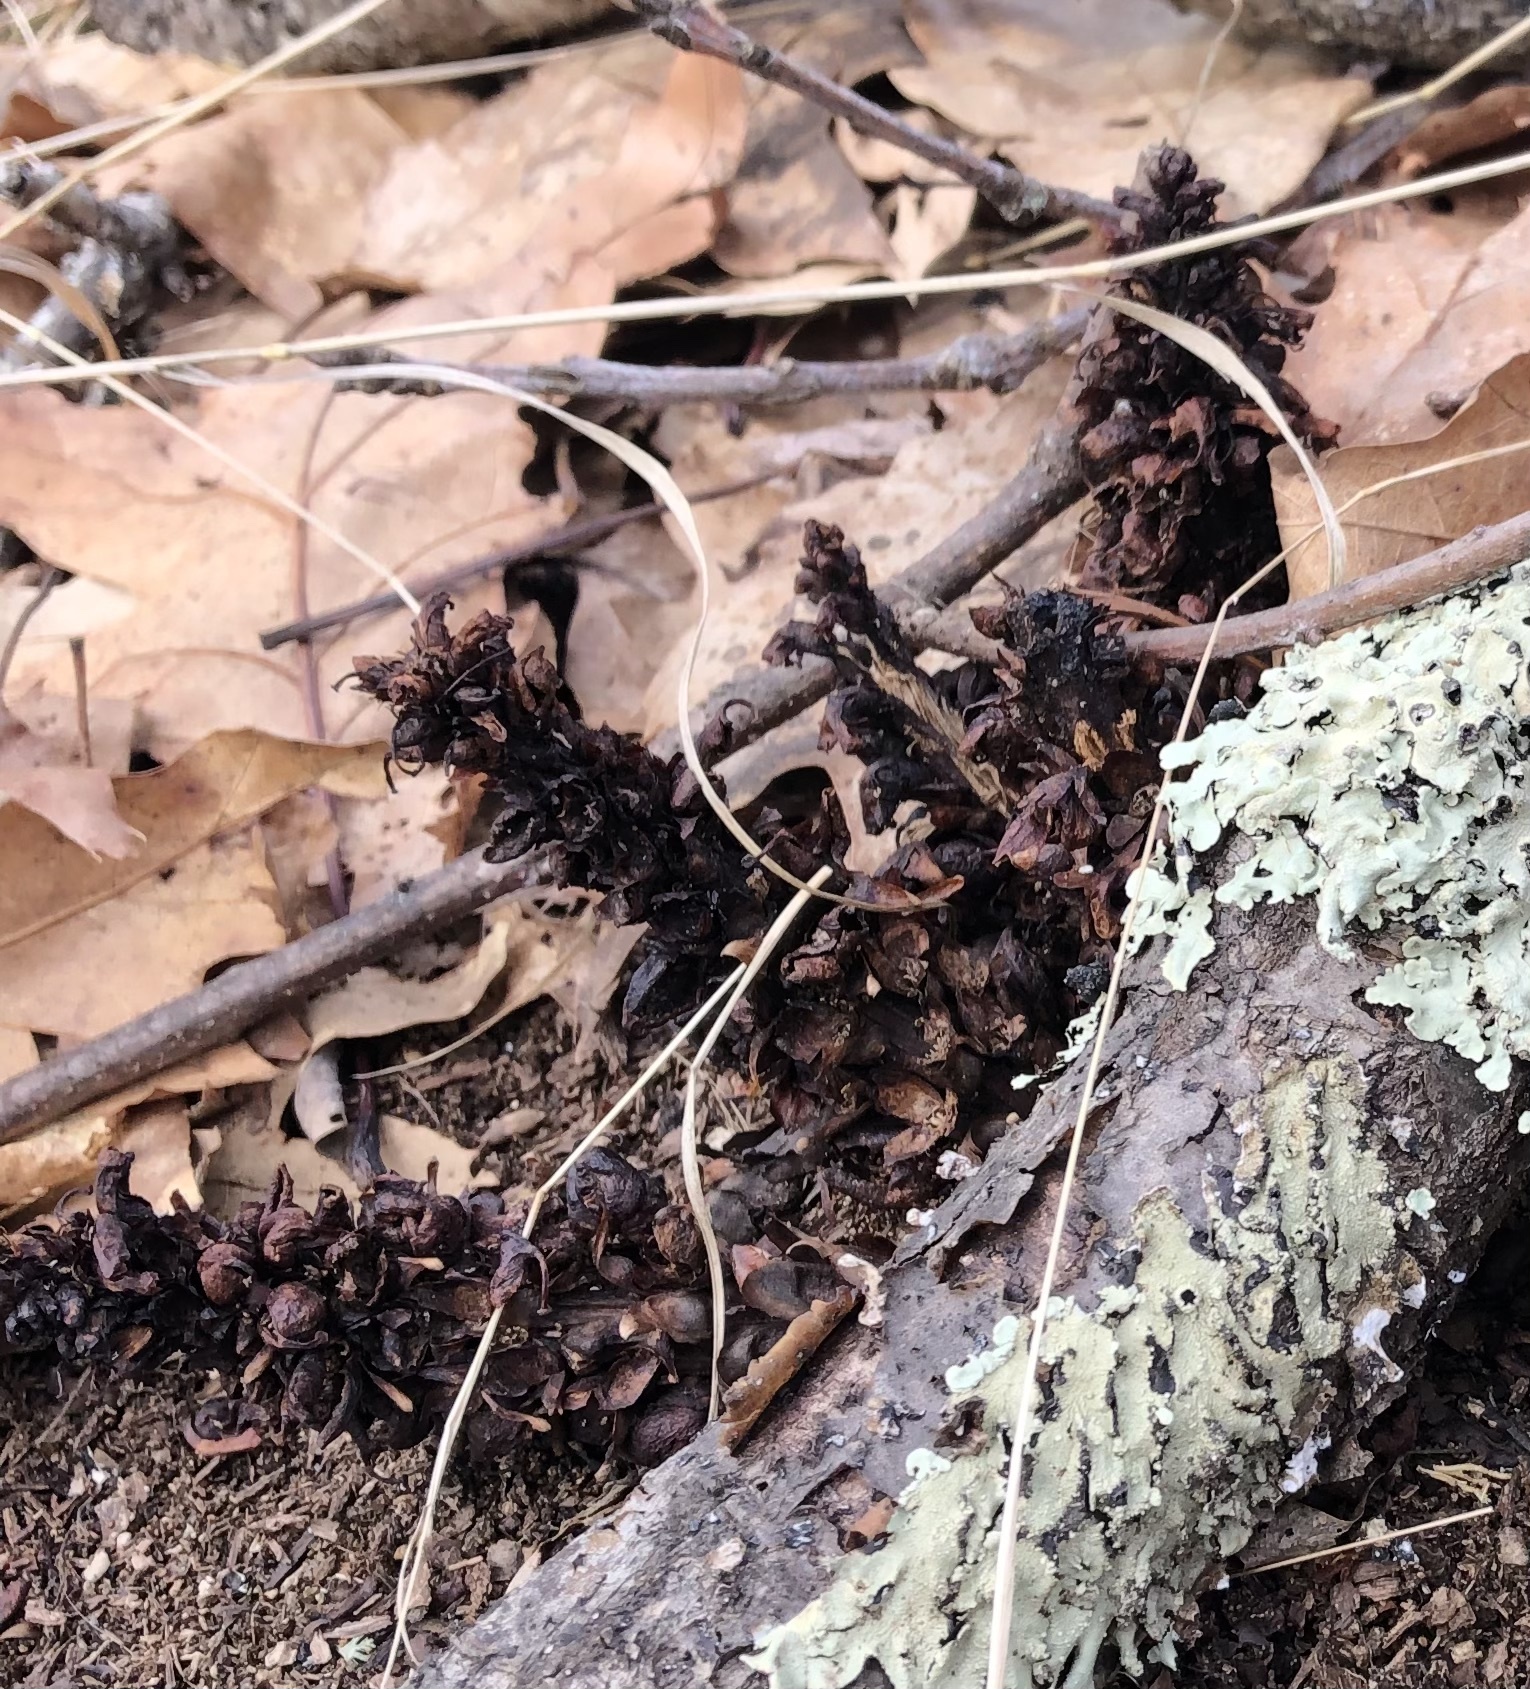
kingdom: Plantae
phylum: Tracheophyta
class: Magnoliopsida
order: Lamiales
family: Orobanchaceae
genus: Conopholis
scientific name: Conopholis americana
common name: American cancer-root
